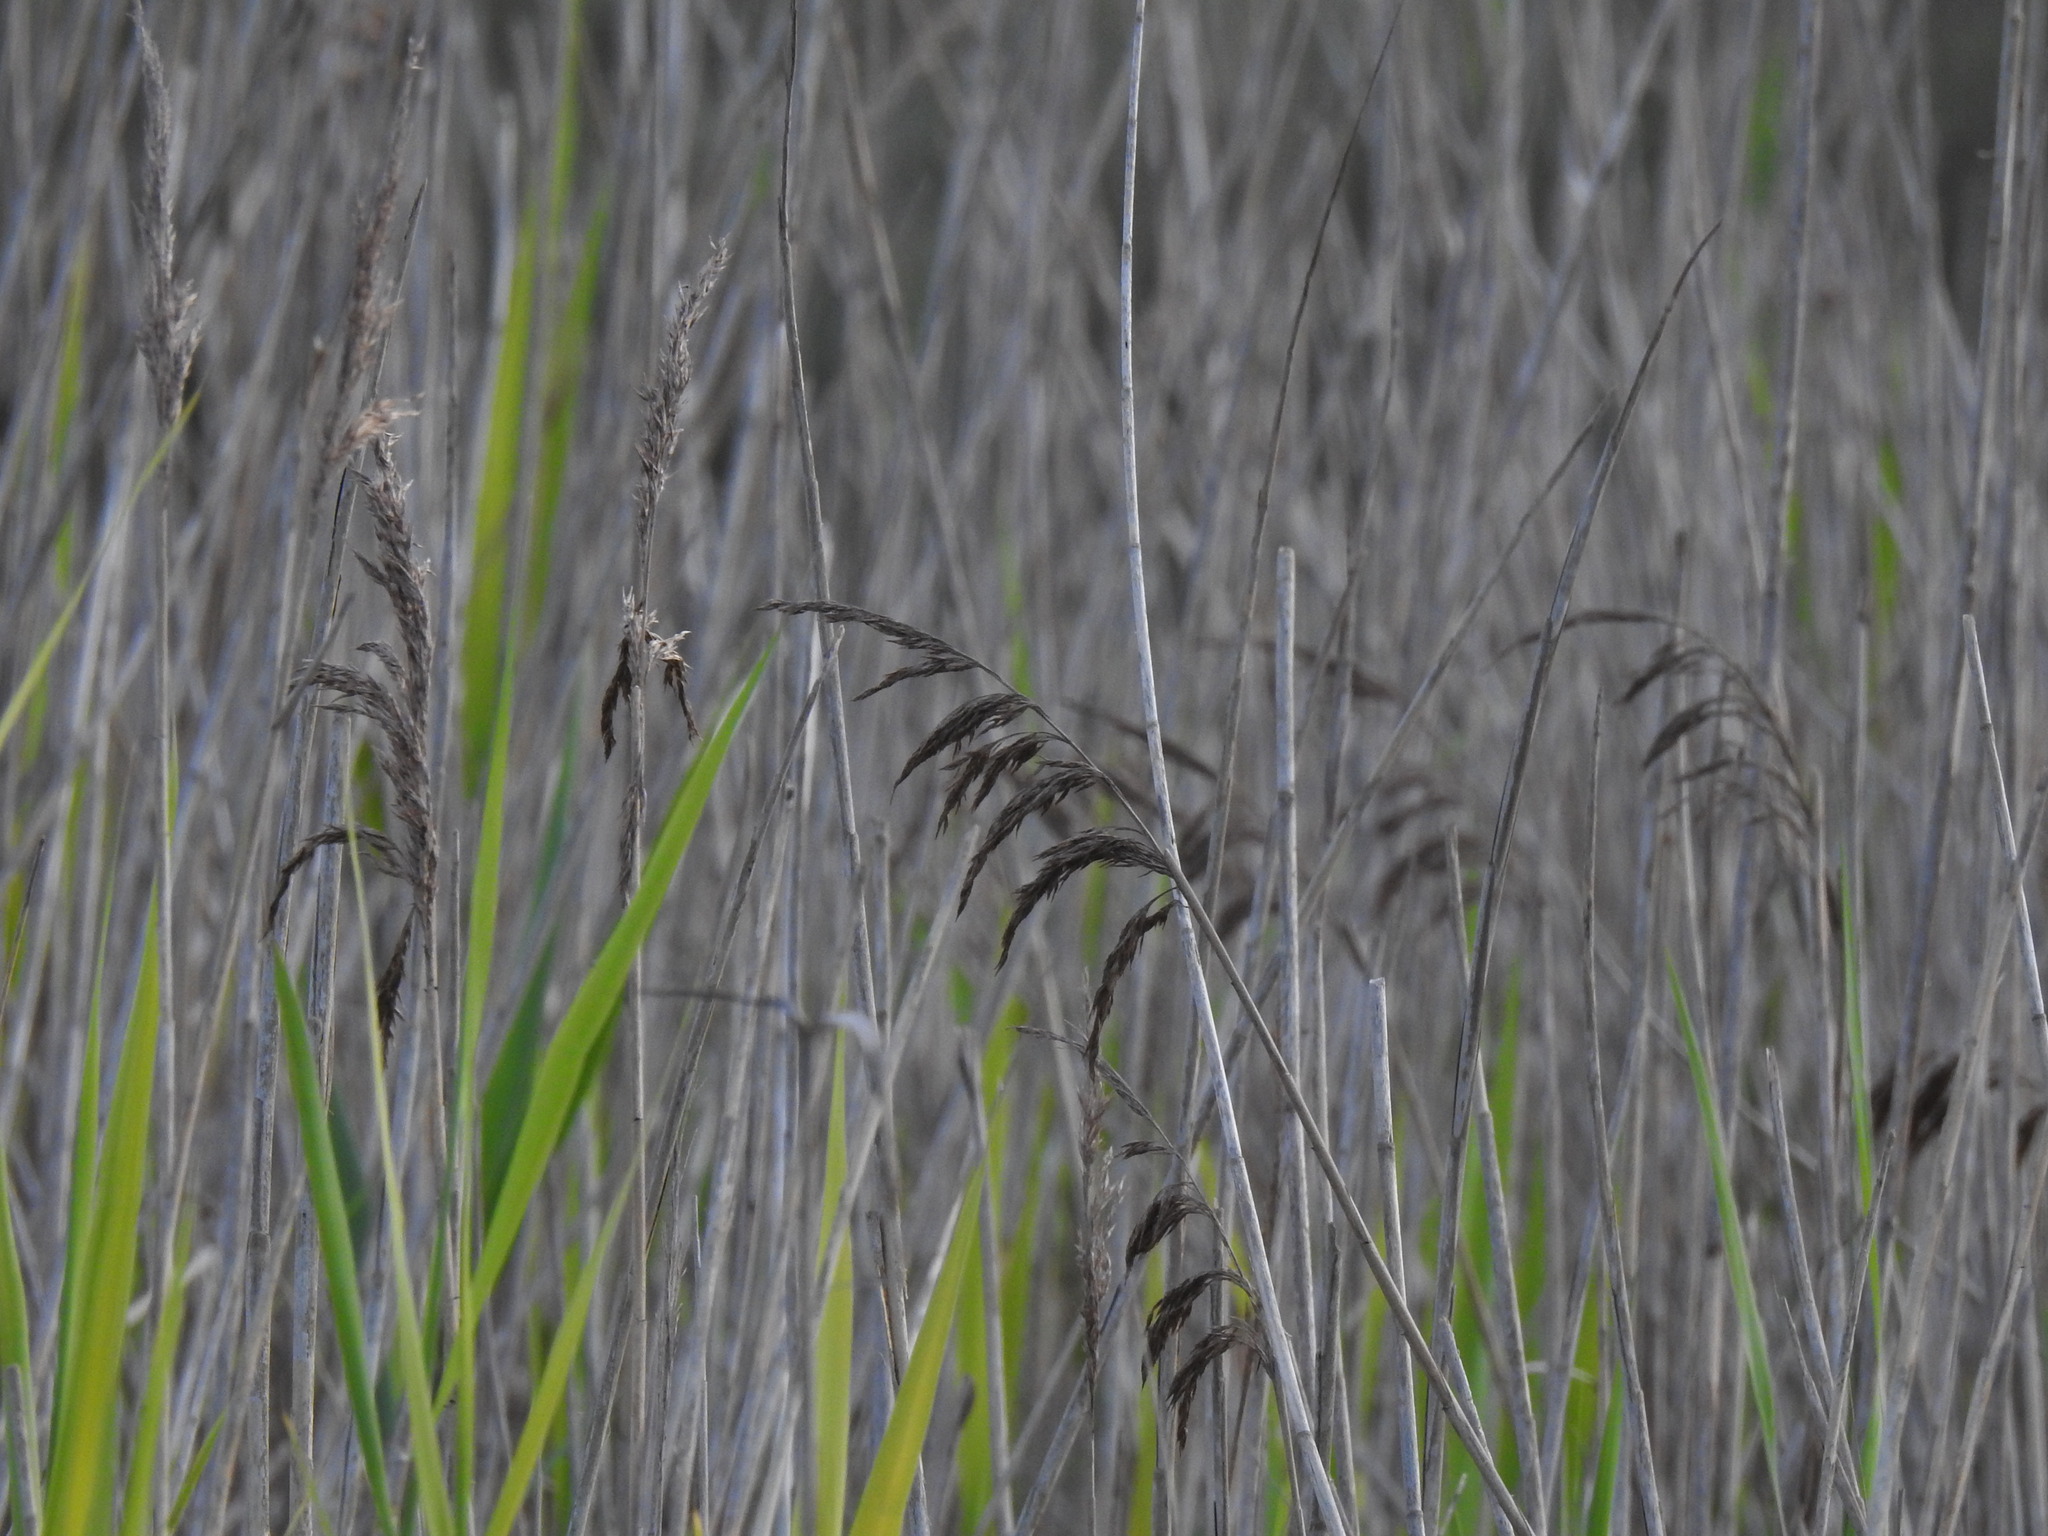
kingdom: Plantae
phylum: Tracheophyta
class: Liliopsida
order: Poales
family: Poaceae
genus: Phragmites
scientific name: Phragmites australis
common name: Common reed
